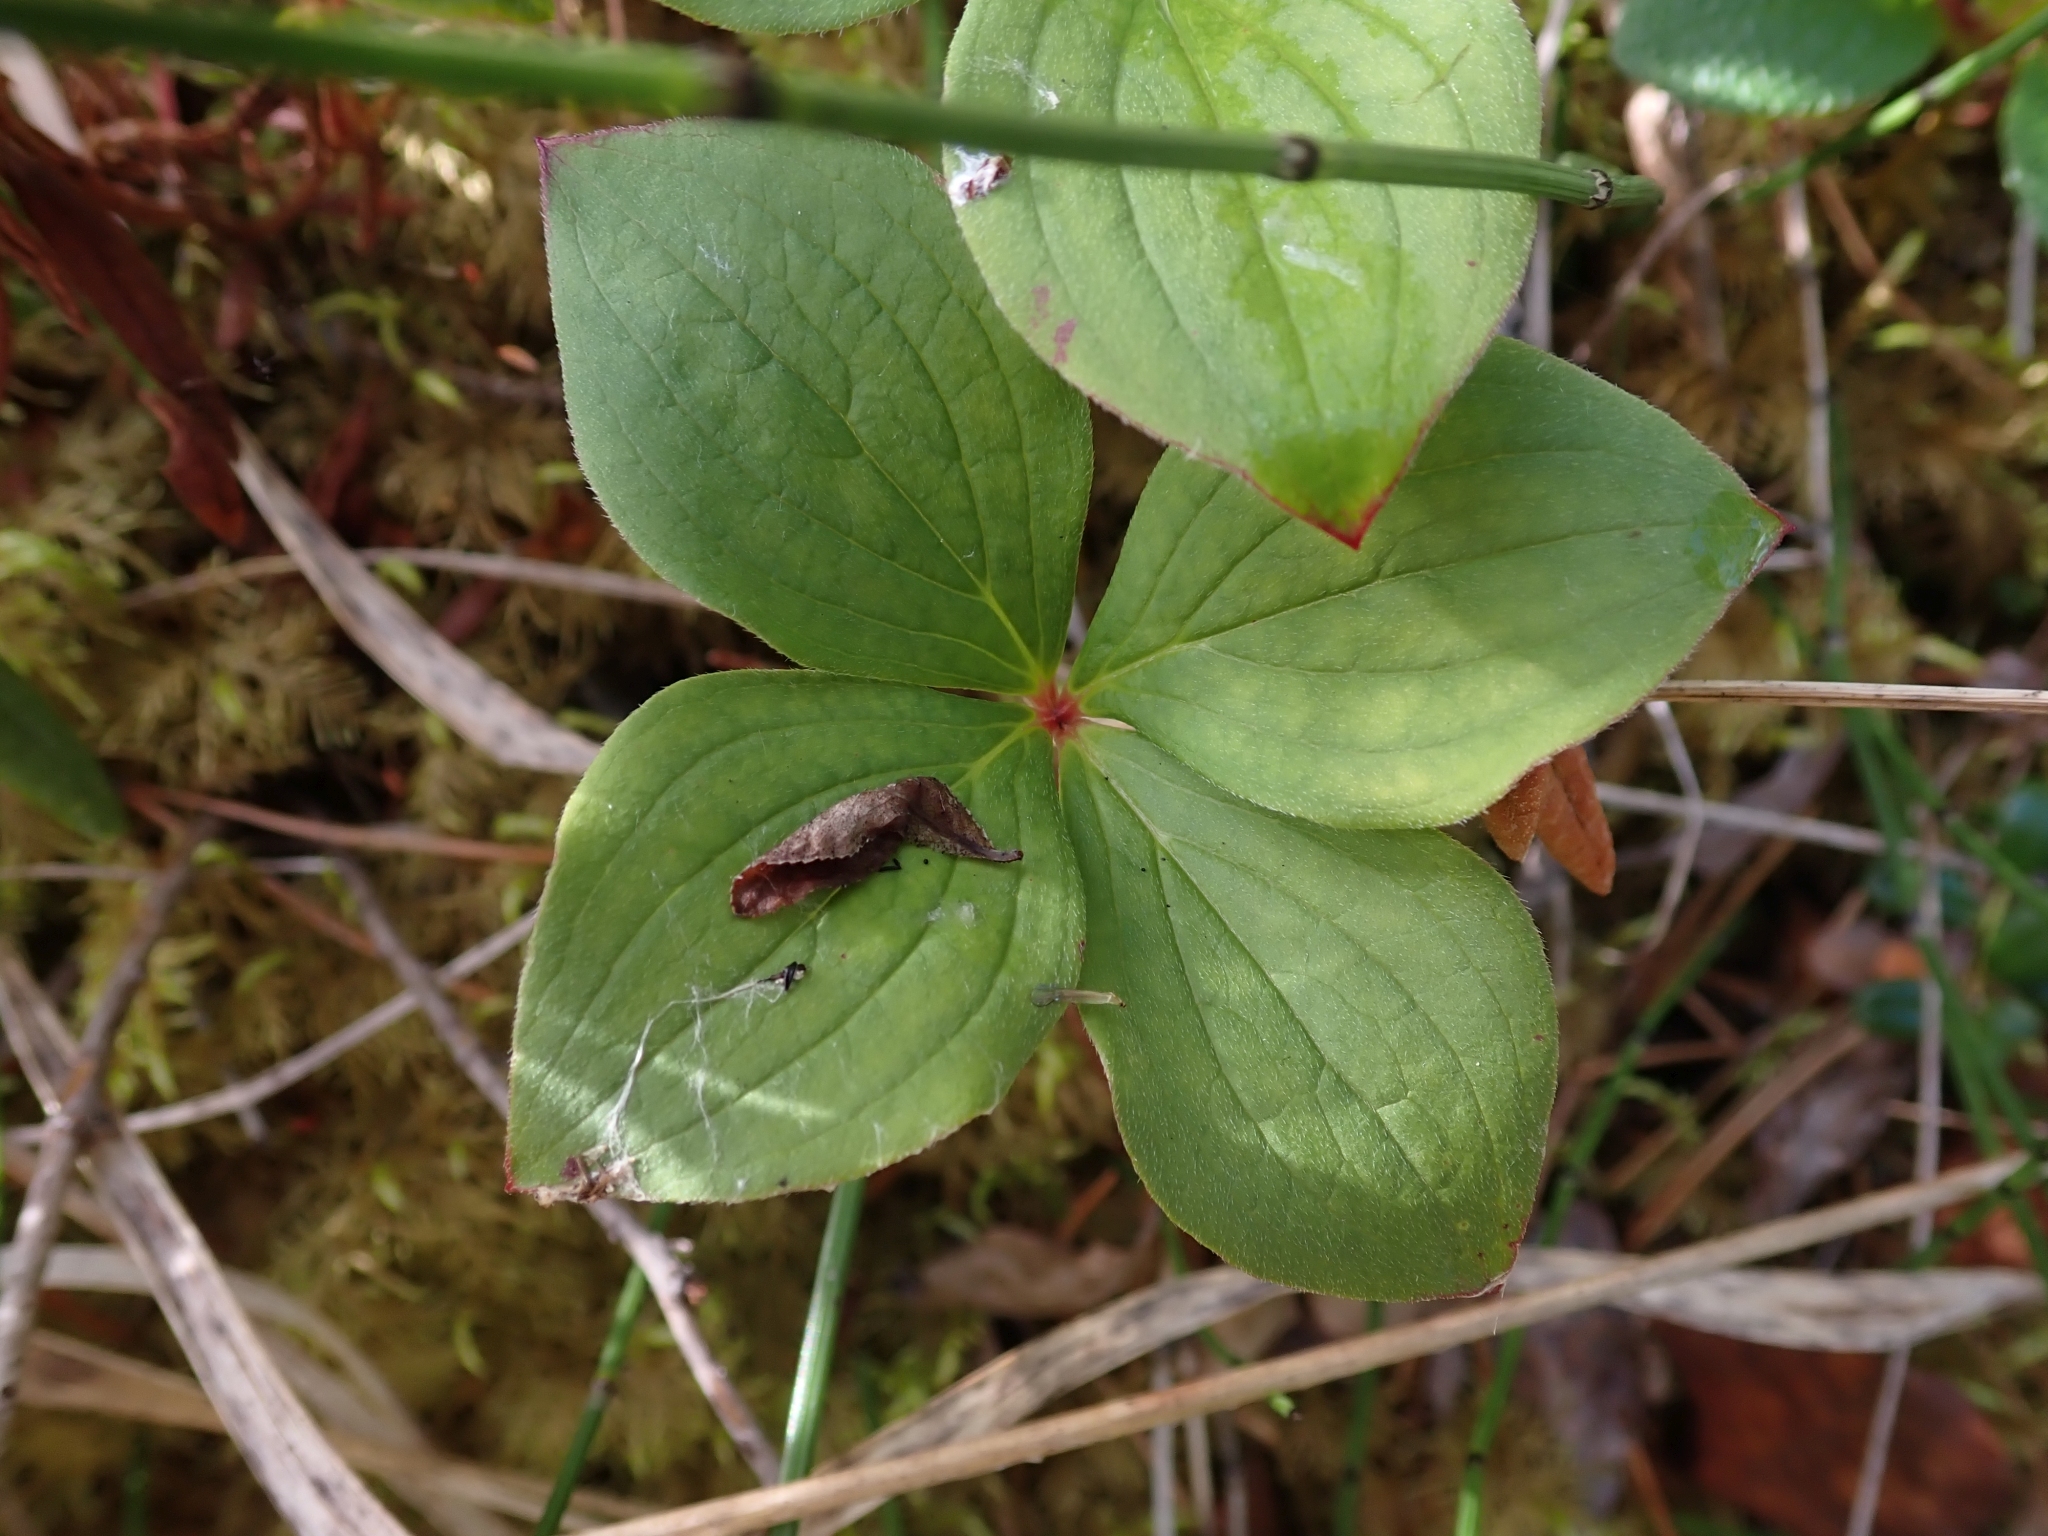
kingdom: Plantae
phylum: Tracheophyta
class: Magnoliopsida
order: Cornales
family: Cornaceae
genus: Cornus
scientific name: Cornus canadensis
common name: Creeping dogwood
